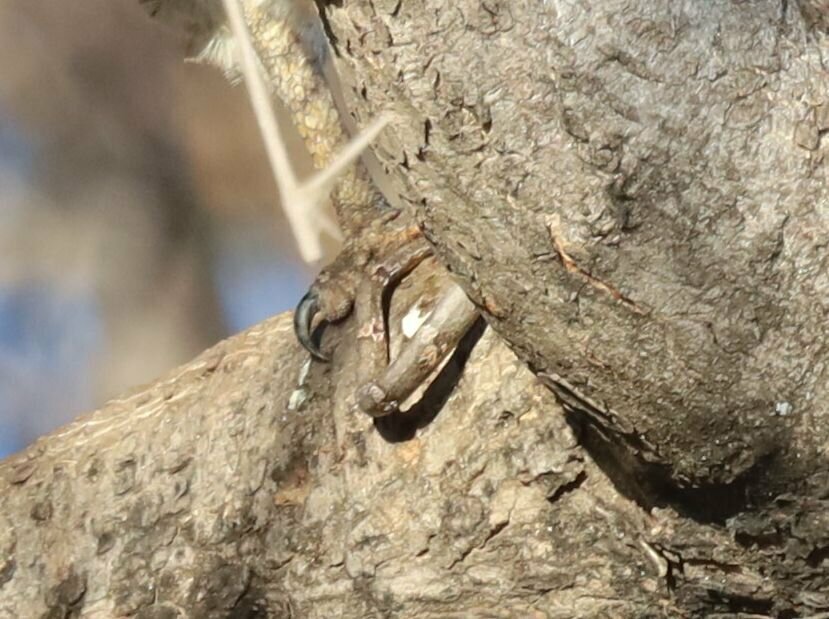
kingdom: Animalia
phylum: Chordata
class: Squamata
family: Colubridae
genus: Thelotornis
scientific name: Thelotornis capensis
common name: Savanna vine snake
